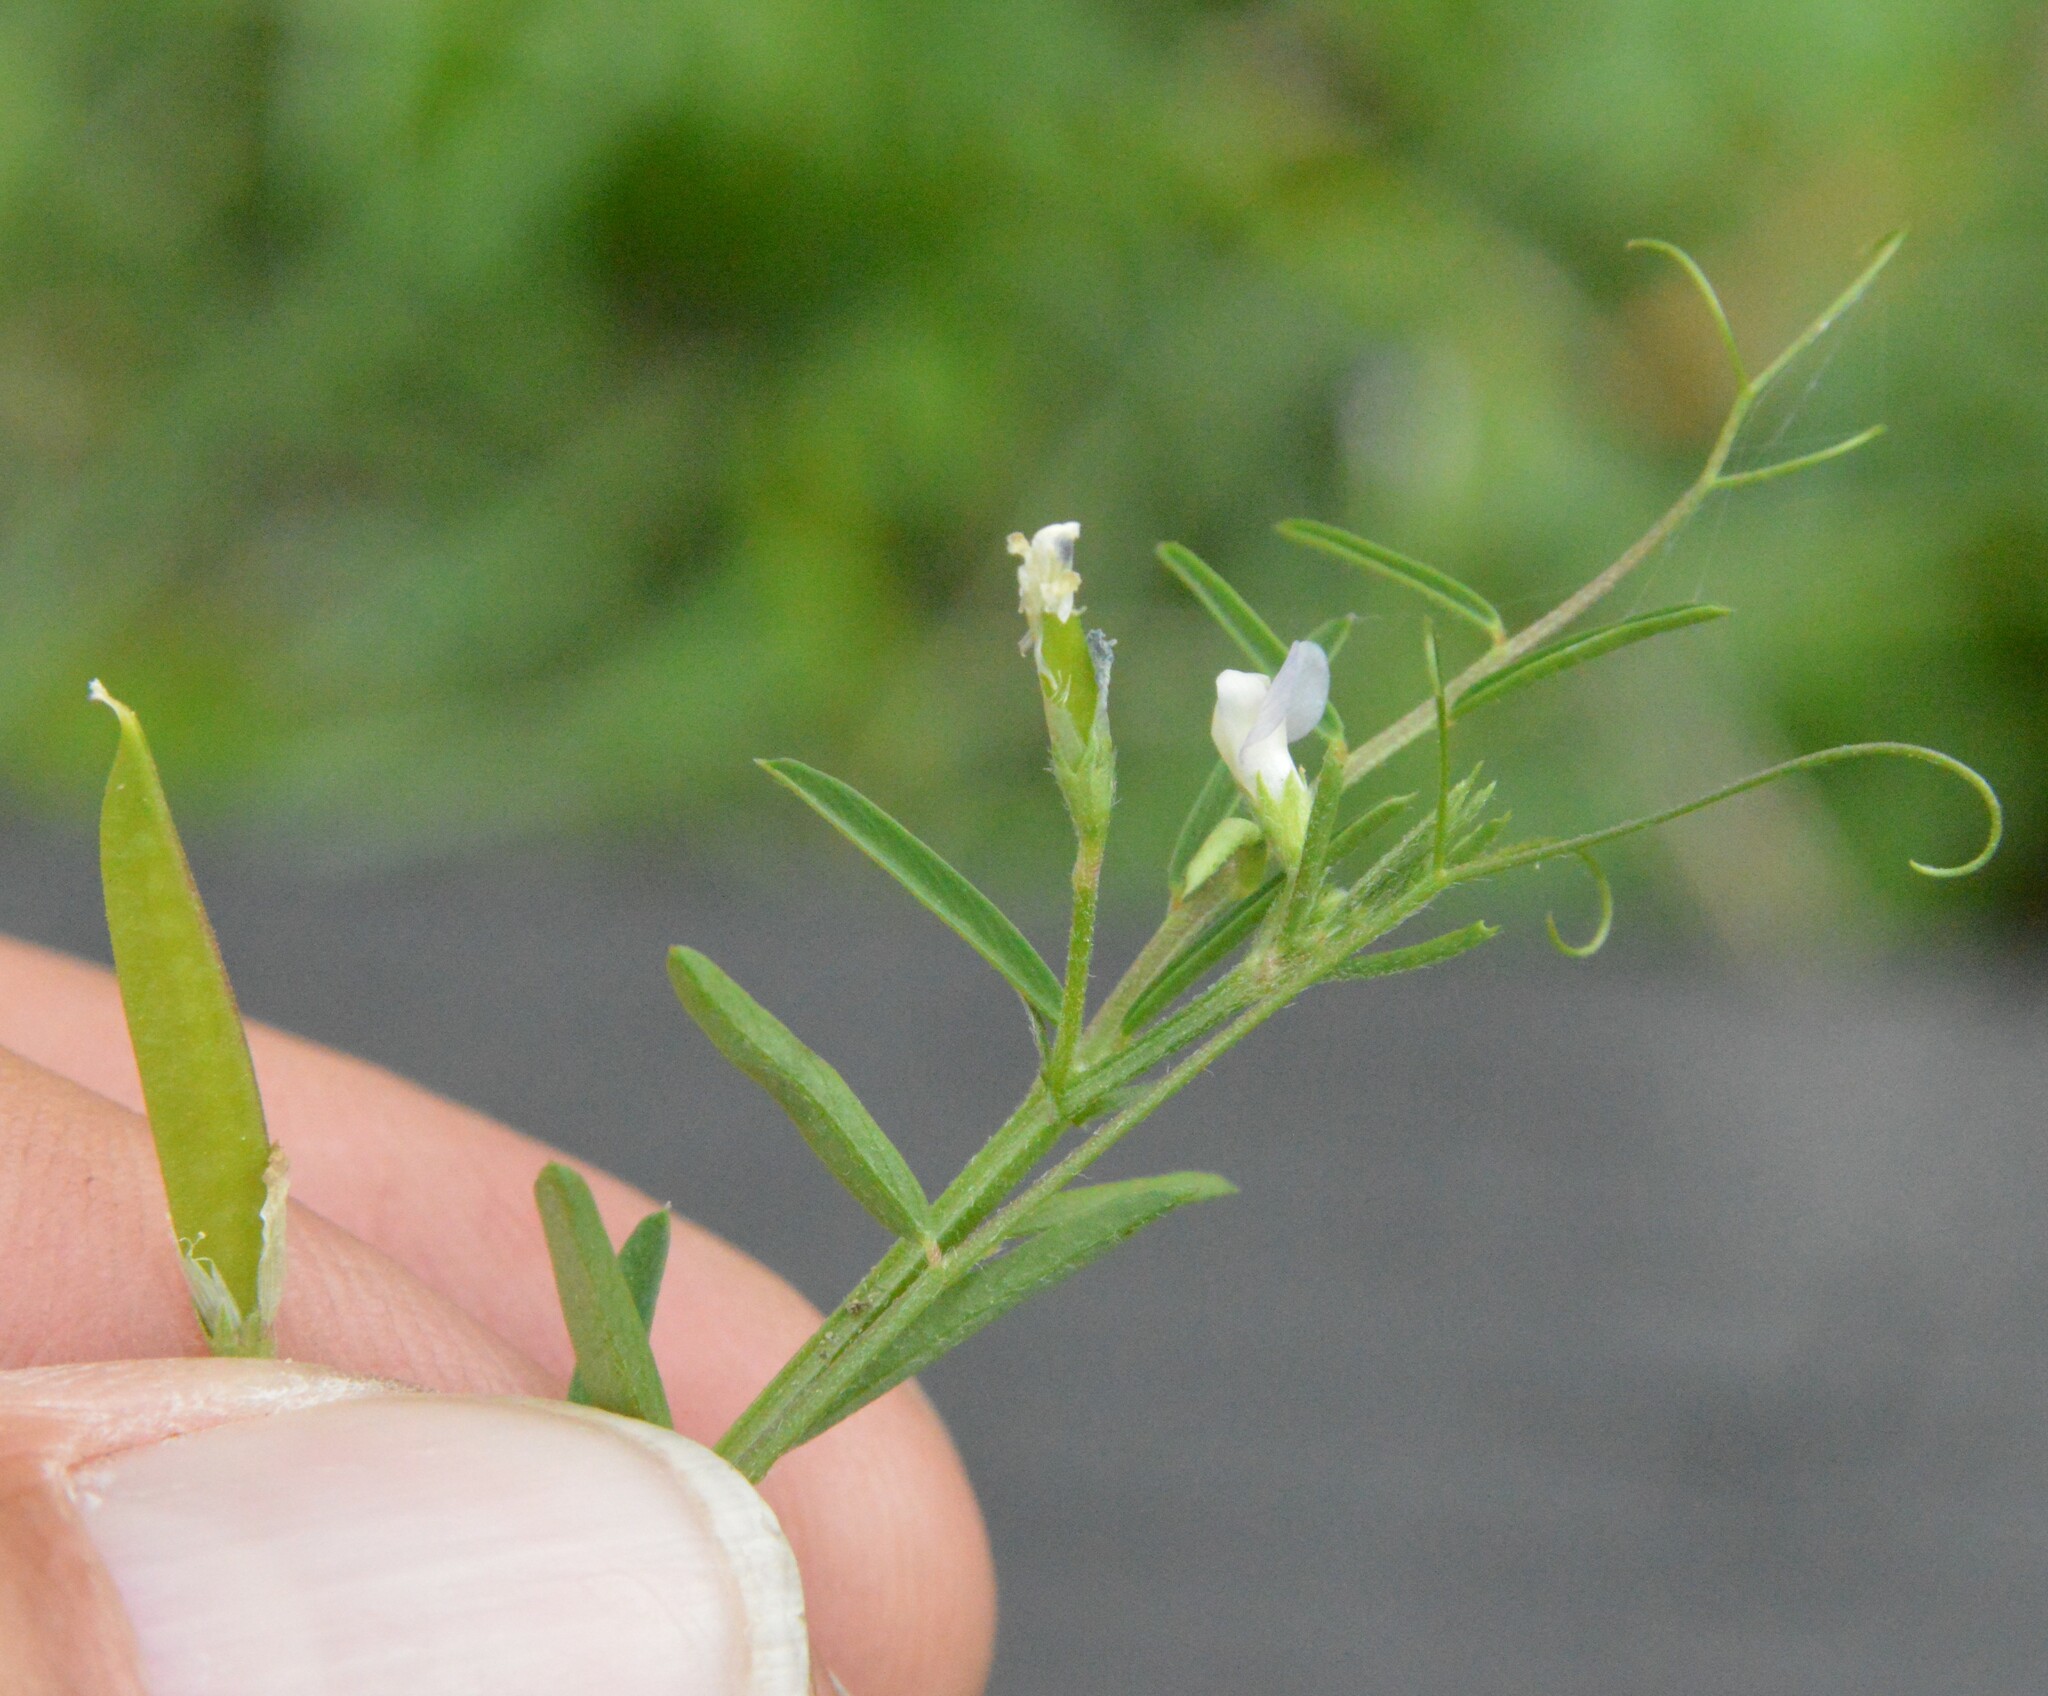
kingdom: Plantae
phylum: Tracheophyta
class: Magnoliopsida
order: Fabales
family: Fabaceae
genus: Vicia
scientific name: Vicia minutiflora
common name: Pygmy-flower vetch
